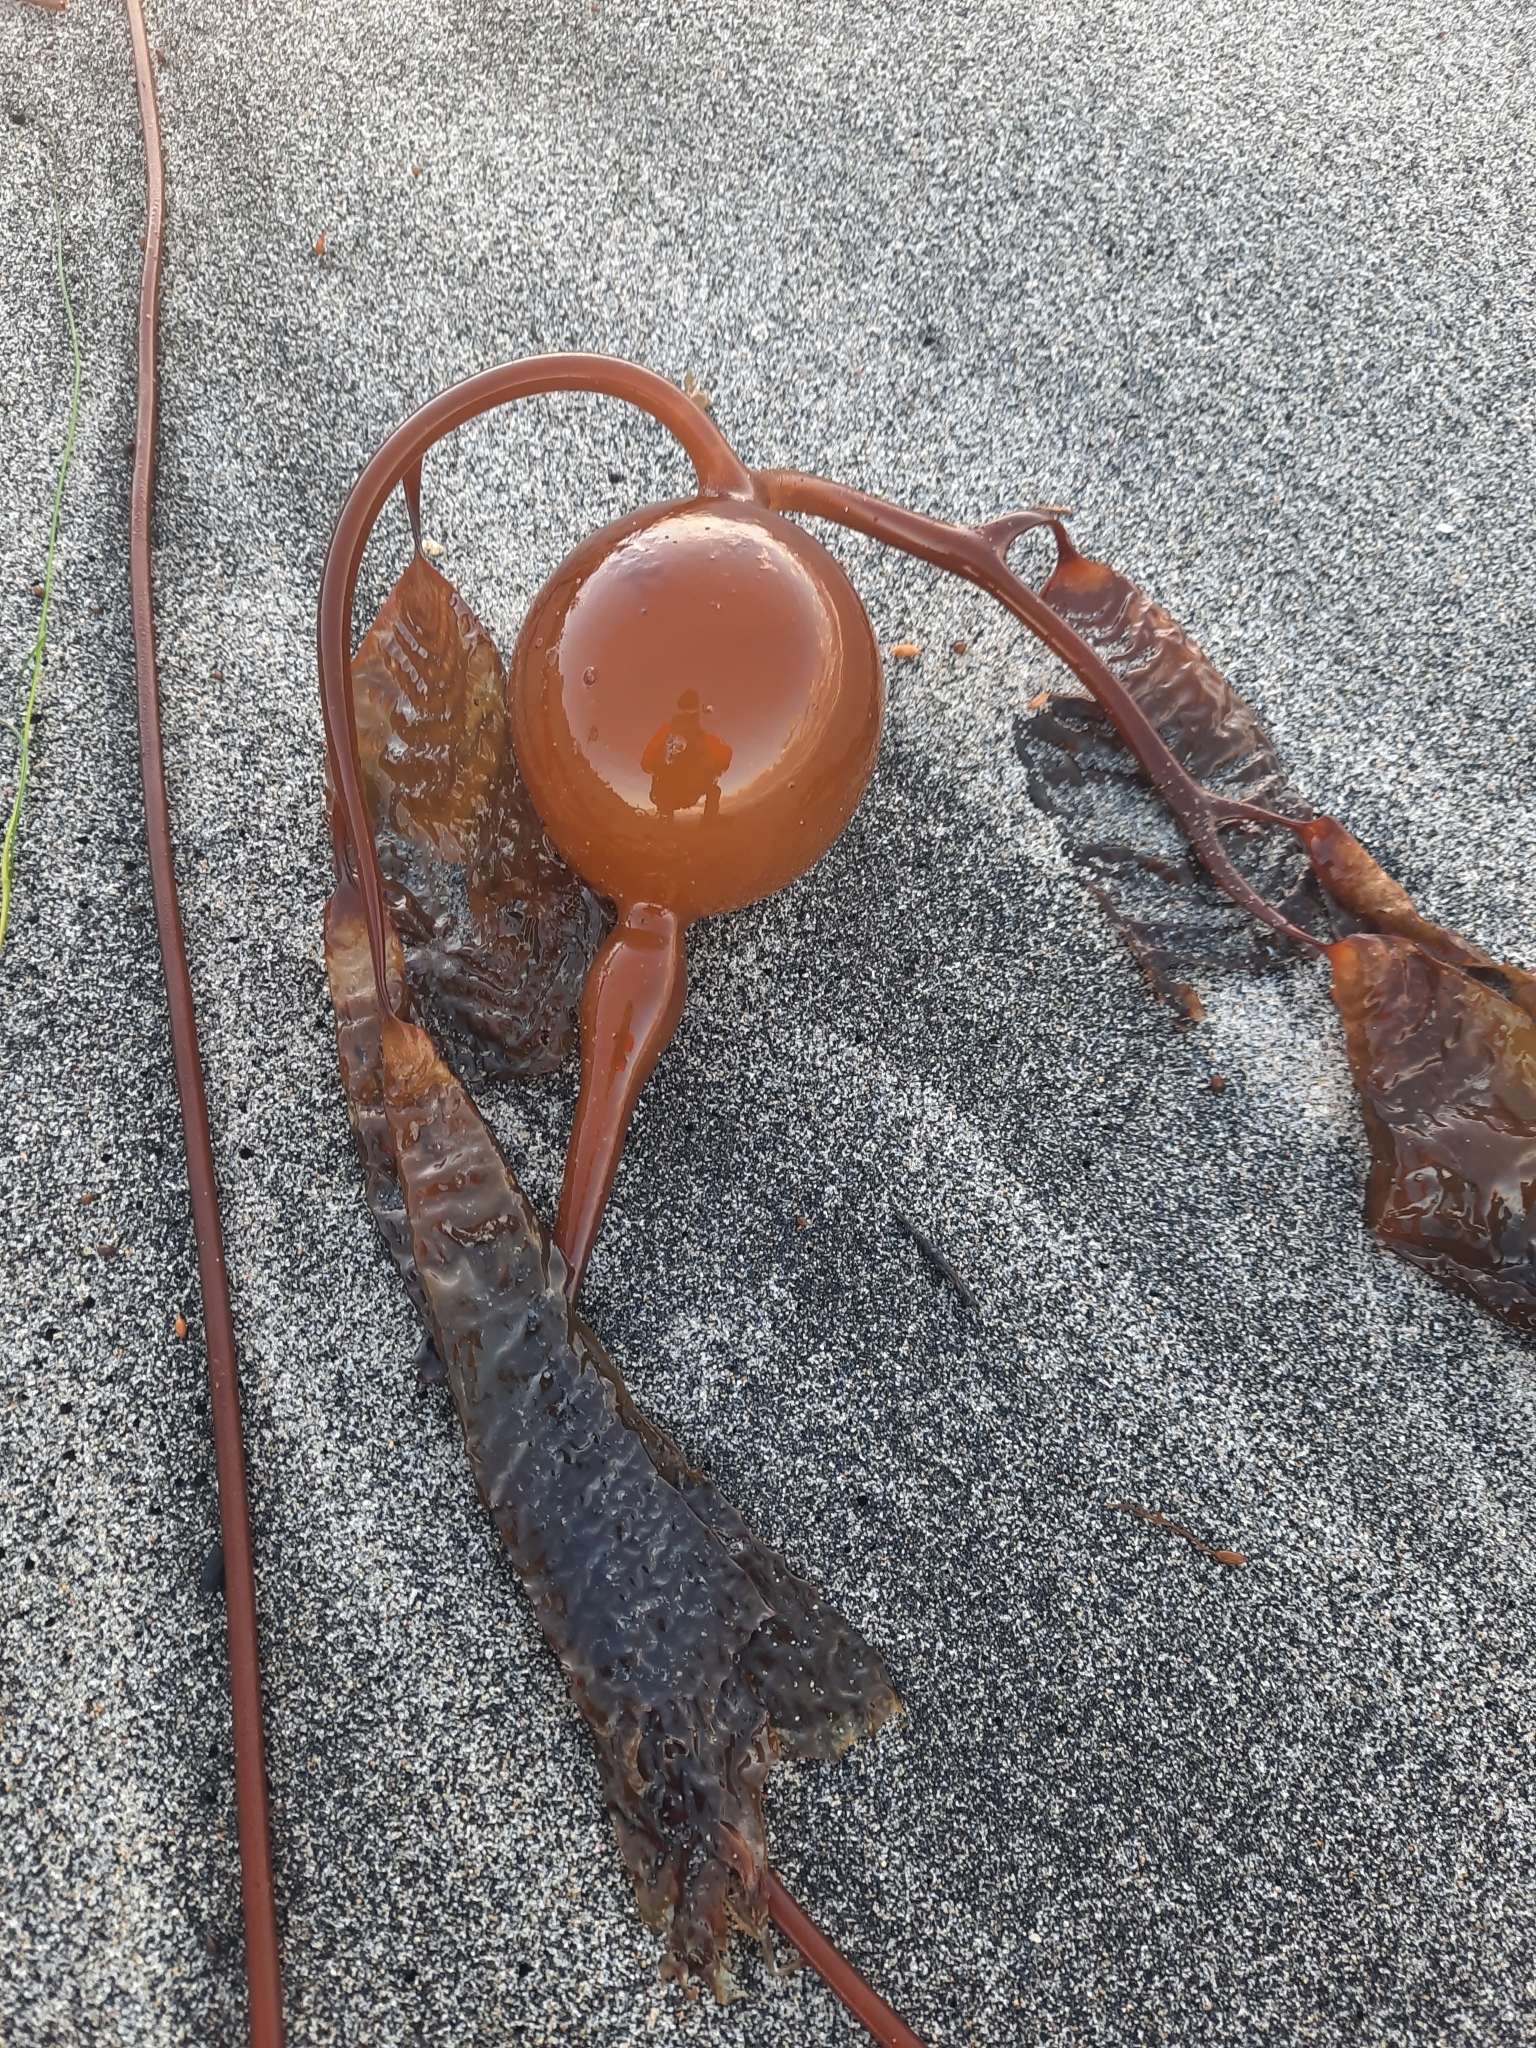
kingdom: Chromista
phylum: Ochrophyta
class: Phaeophyceae
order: Laminariales
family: Laminariaceae
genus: Pelagophycus
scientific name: Pelagophycus porra
